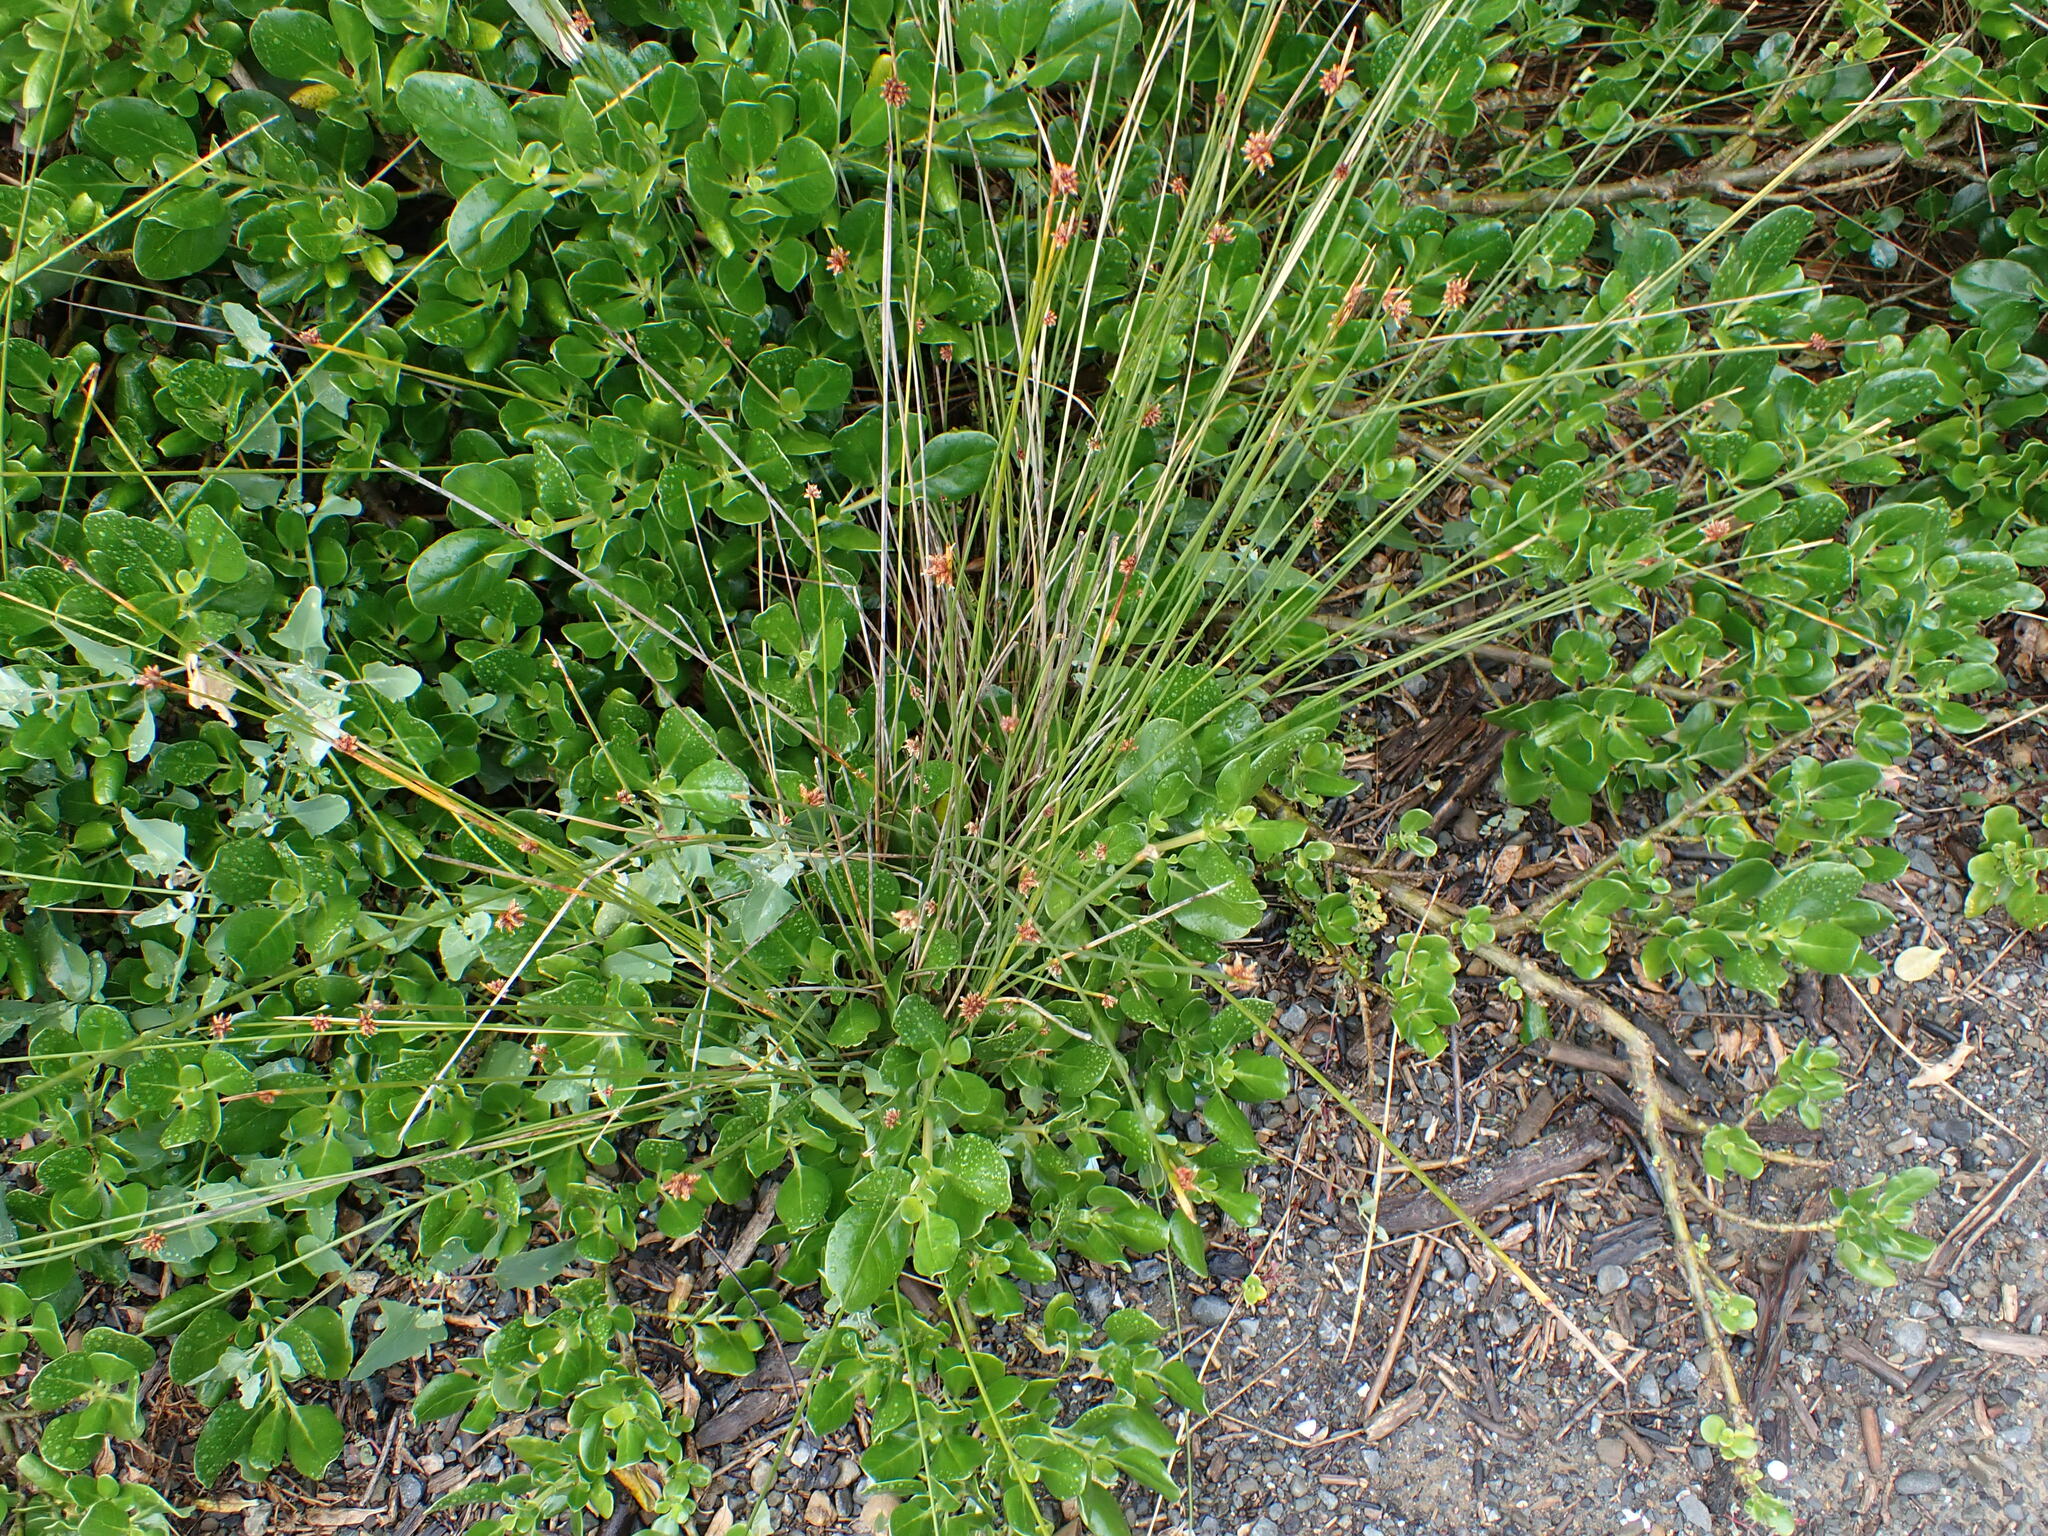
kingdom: Plantae
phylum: Tracheophyta
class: Liliopsida
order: Poales
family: Cyperaceae
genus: Ficinia
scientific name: Ficinia nodosa
